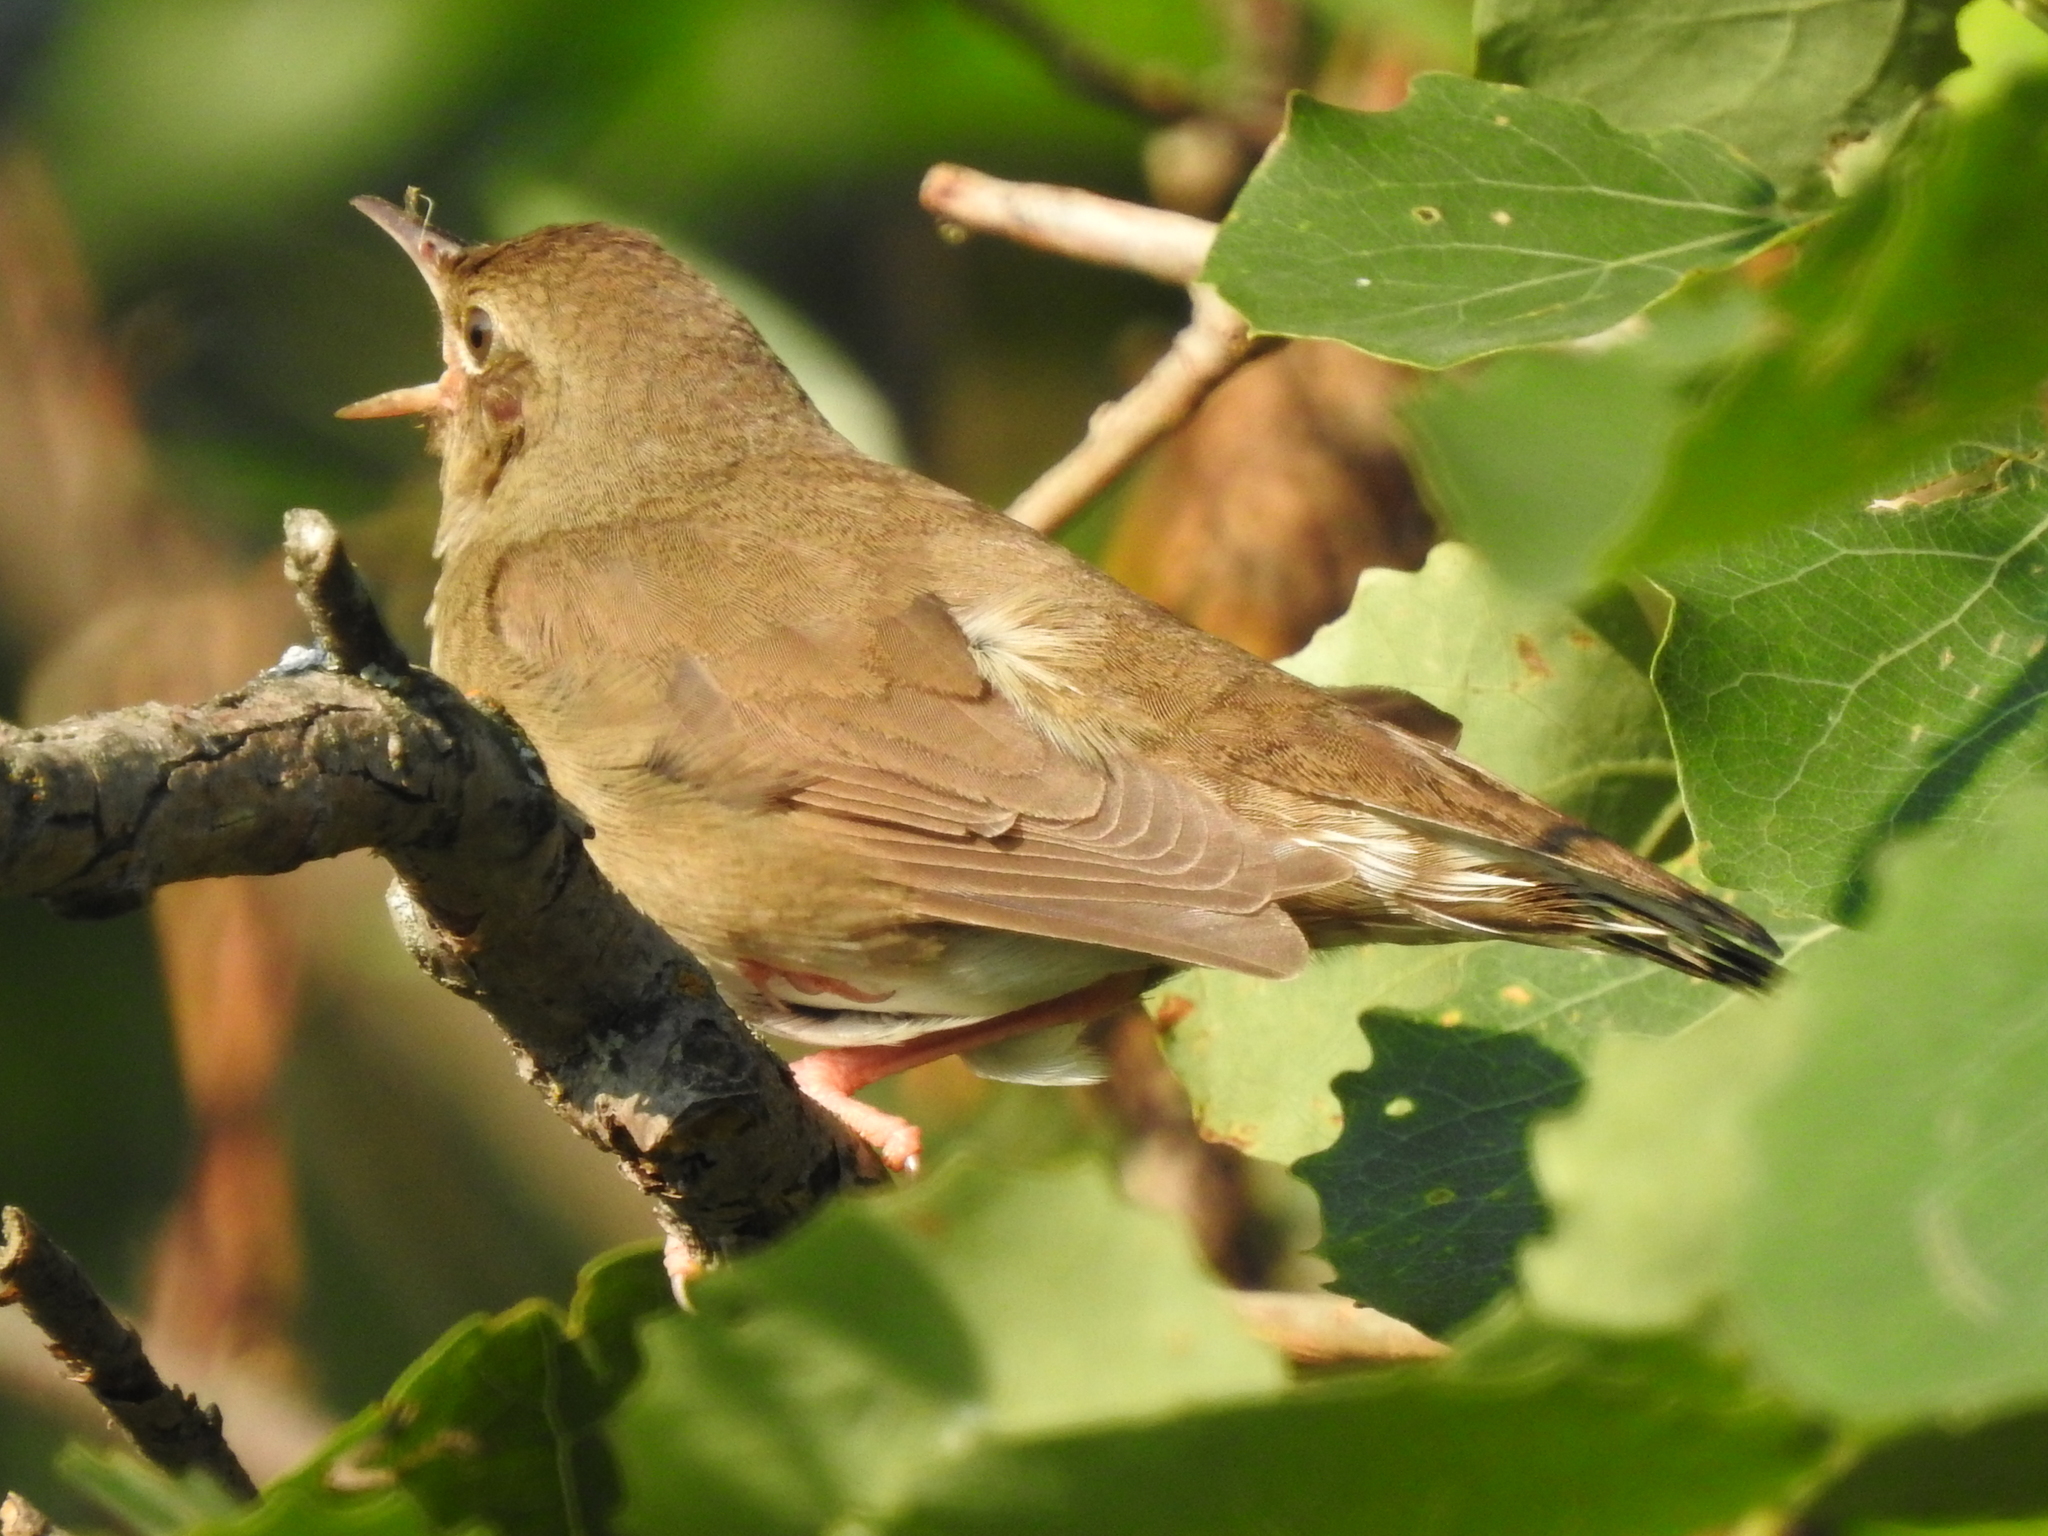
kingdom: Animalia
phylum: Chordata
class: Aves
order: Passeriformes
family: Locustellidae
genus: Locustella
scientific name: Locustella fluviatilis
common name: River warbler
